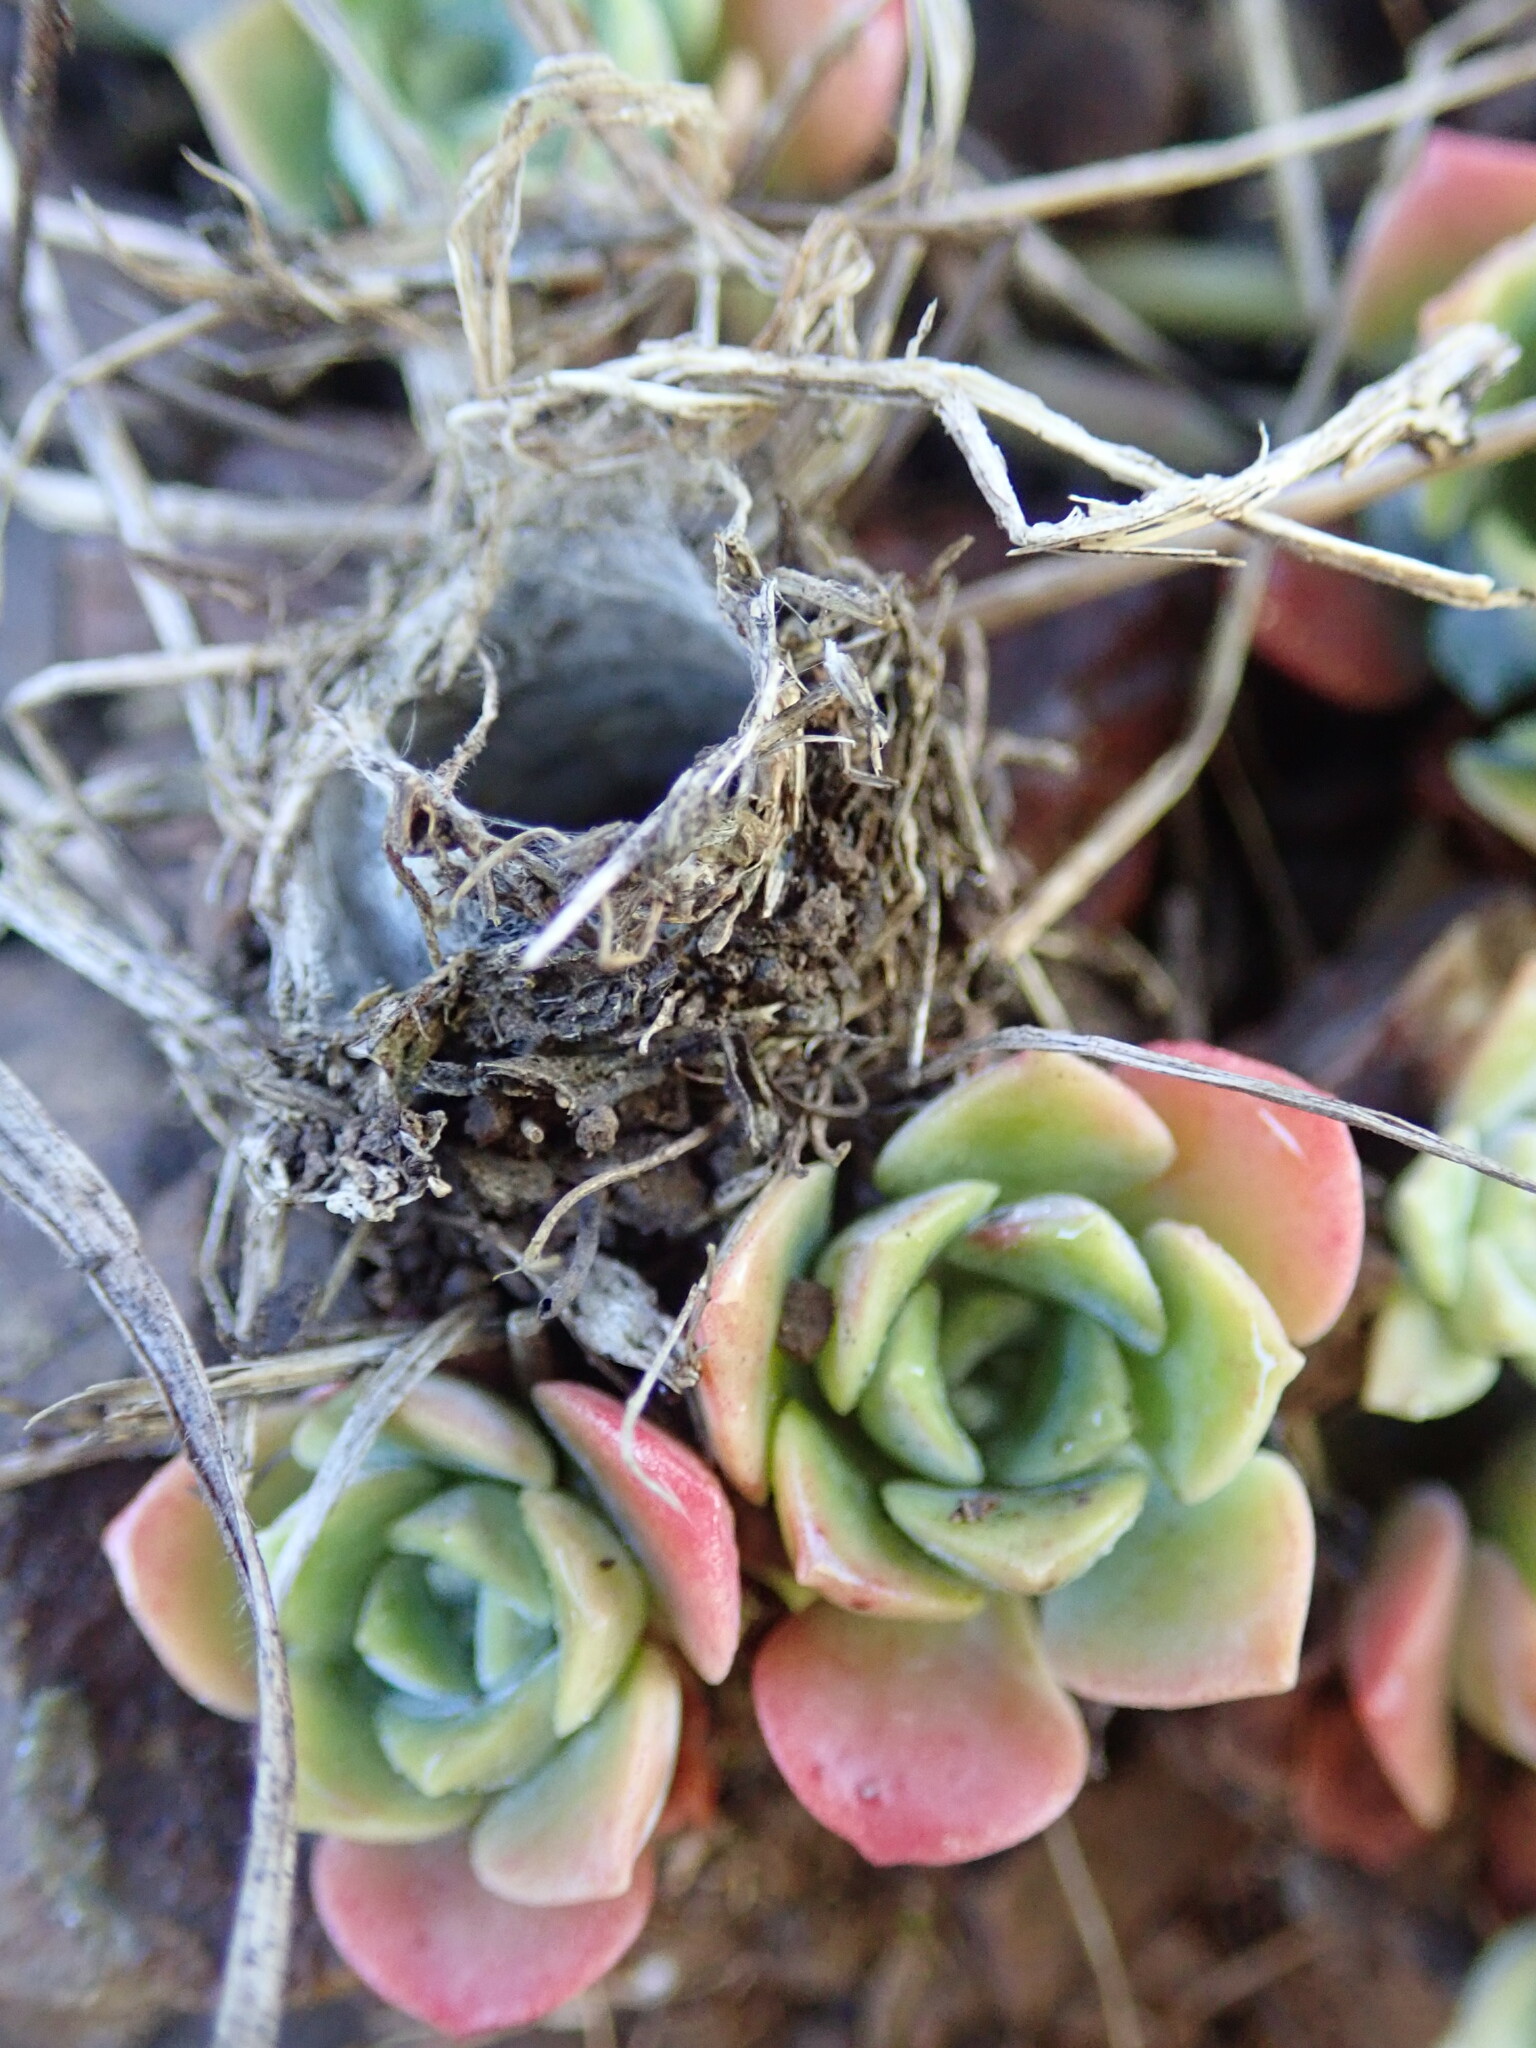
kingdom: Plantae
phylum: Tracheophyta
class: Magnoliopsida
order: Saxifragales
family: Crassulaceae
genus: Sedum
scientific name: Sedum spathulifolium
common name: Colorado stonecrop
